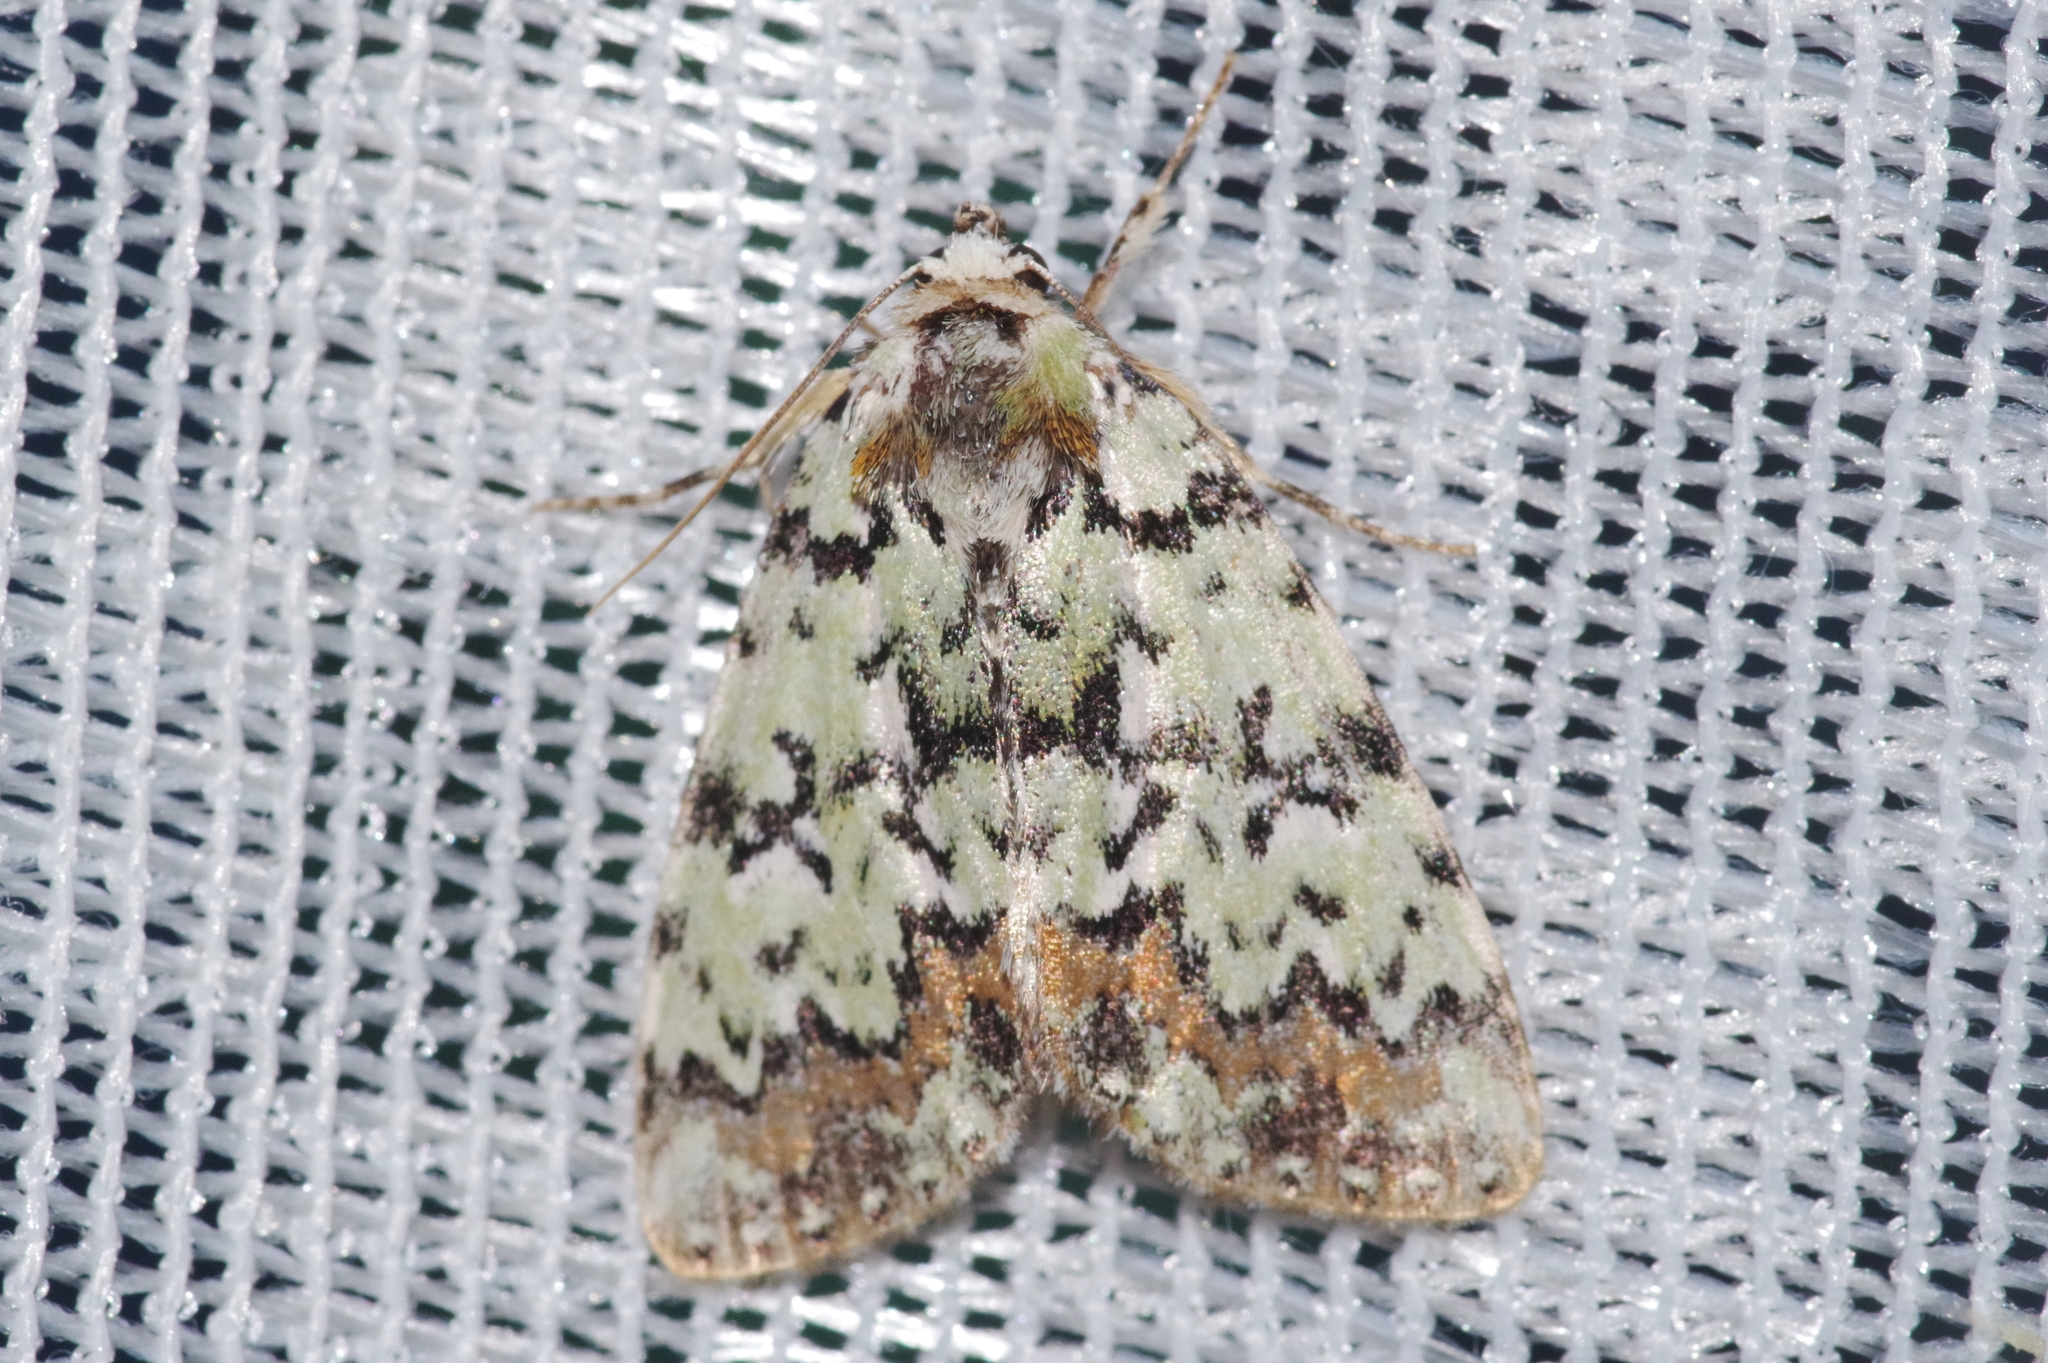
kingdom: Animalia
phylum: Arthropoda
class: Insecta
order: Lepidoptera
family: Noctuidae
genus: Moma
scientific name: Moma
